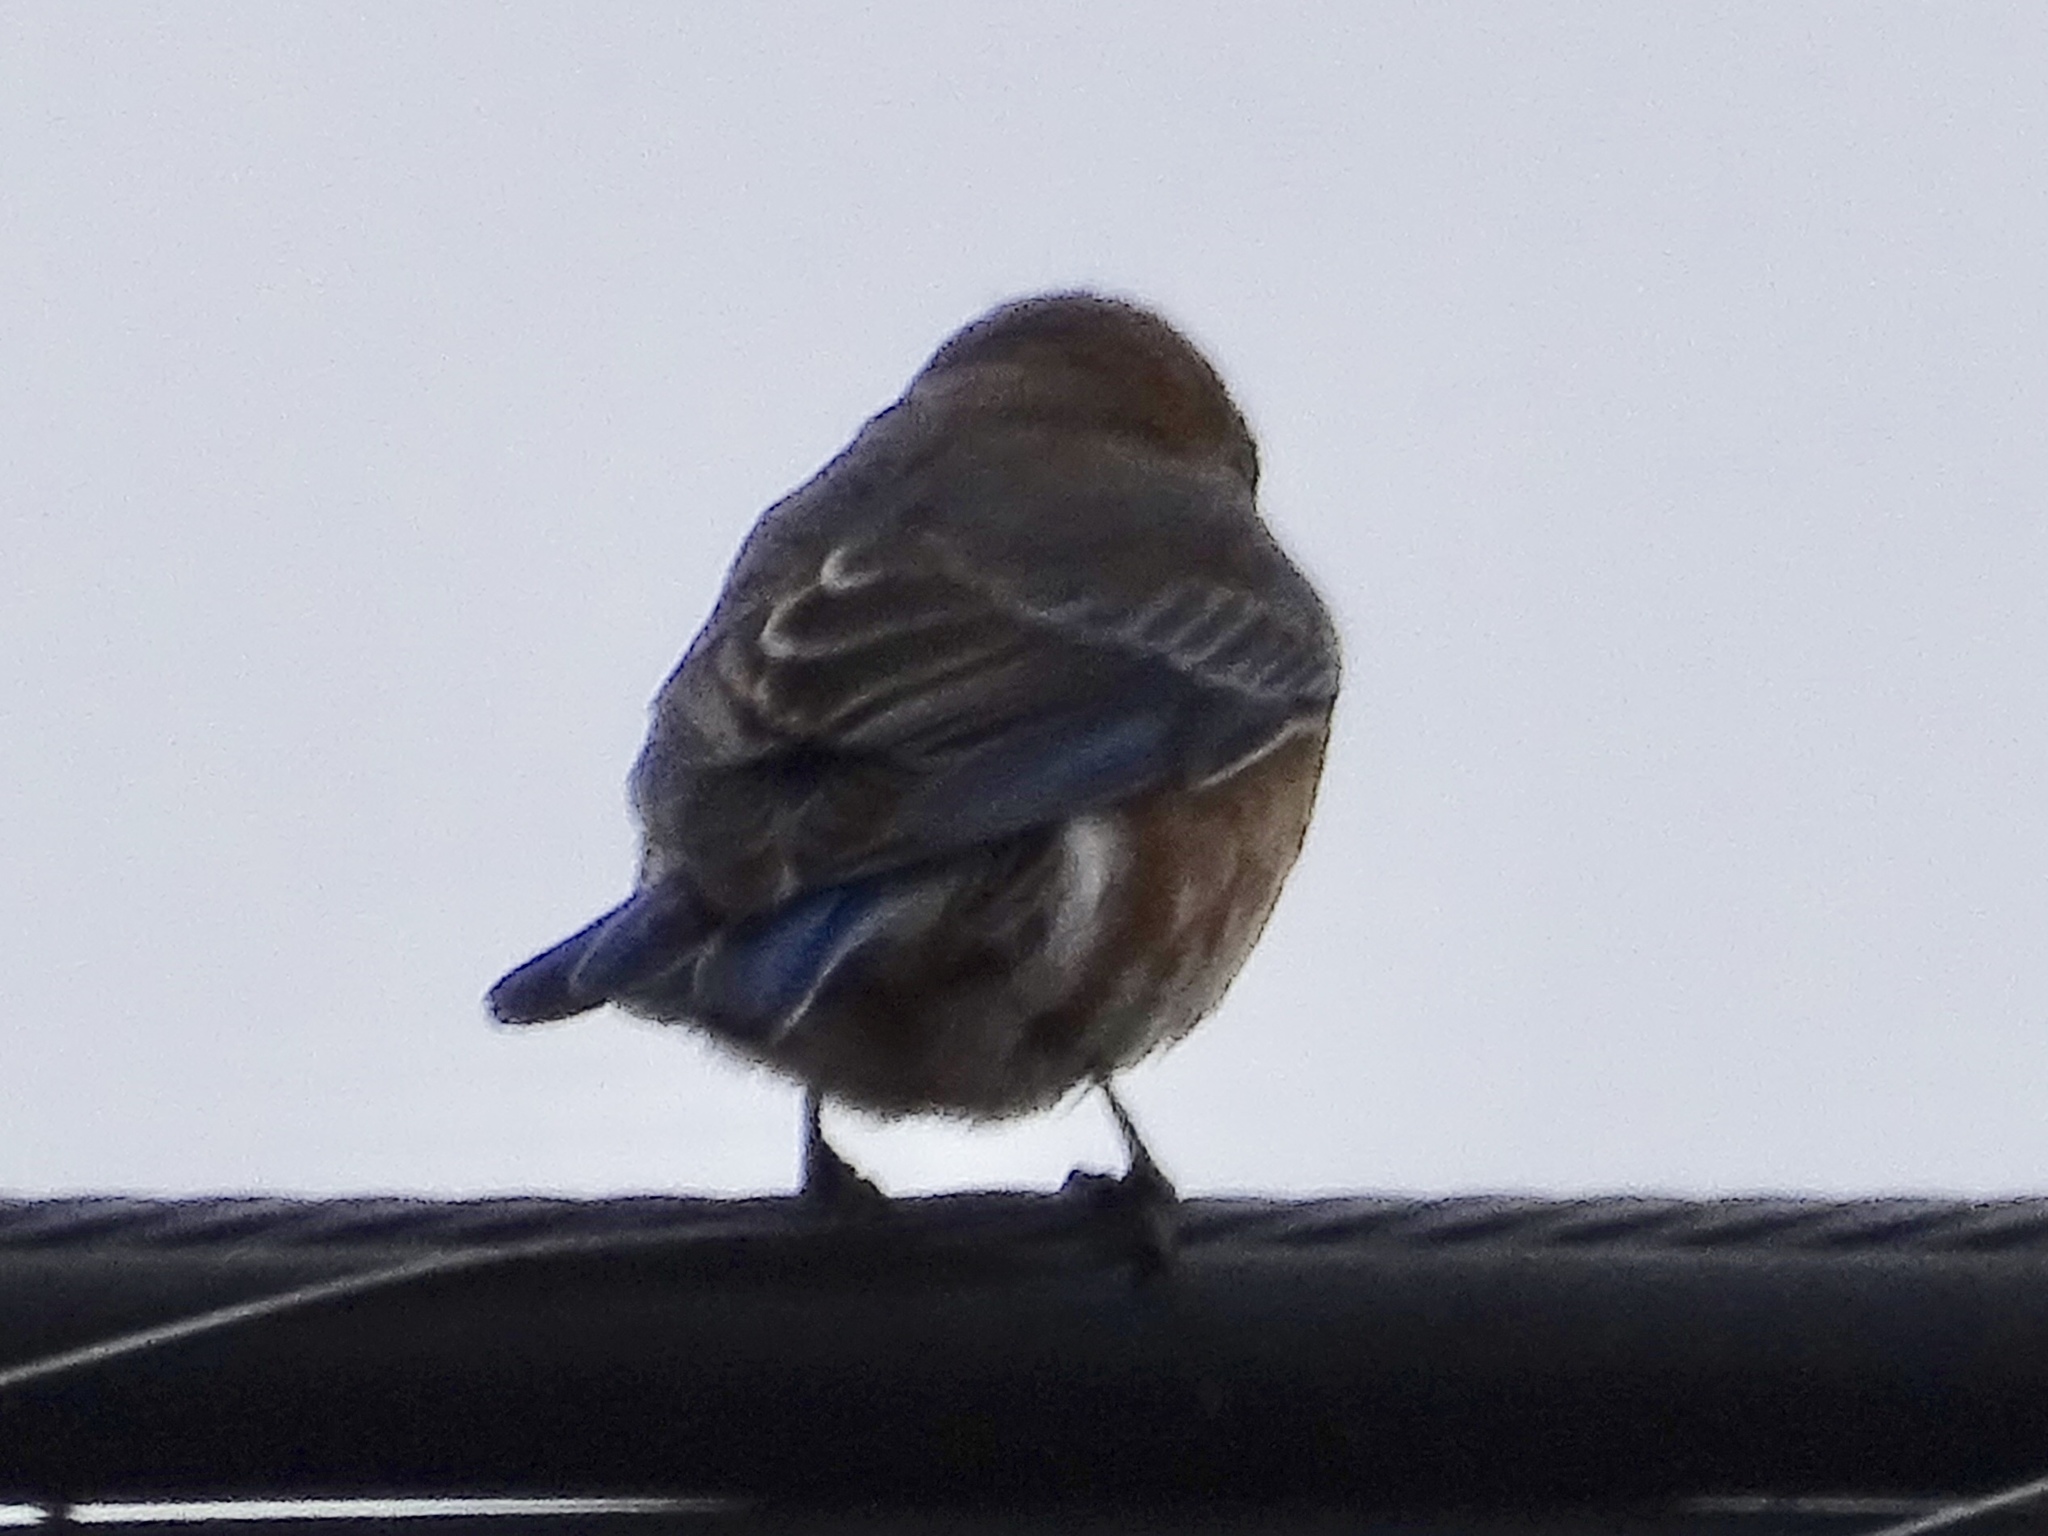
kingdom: Animalia
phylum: Chordata
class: Aves
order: Passeriformes
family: Turdidae
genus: Sialia
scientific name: Sialia sialis
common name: Eastern bluebird
